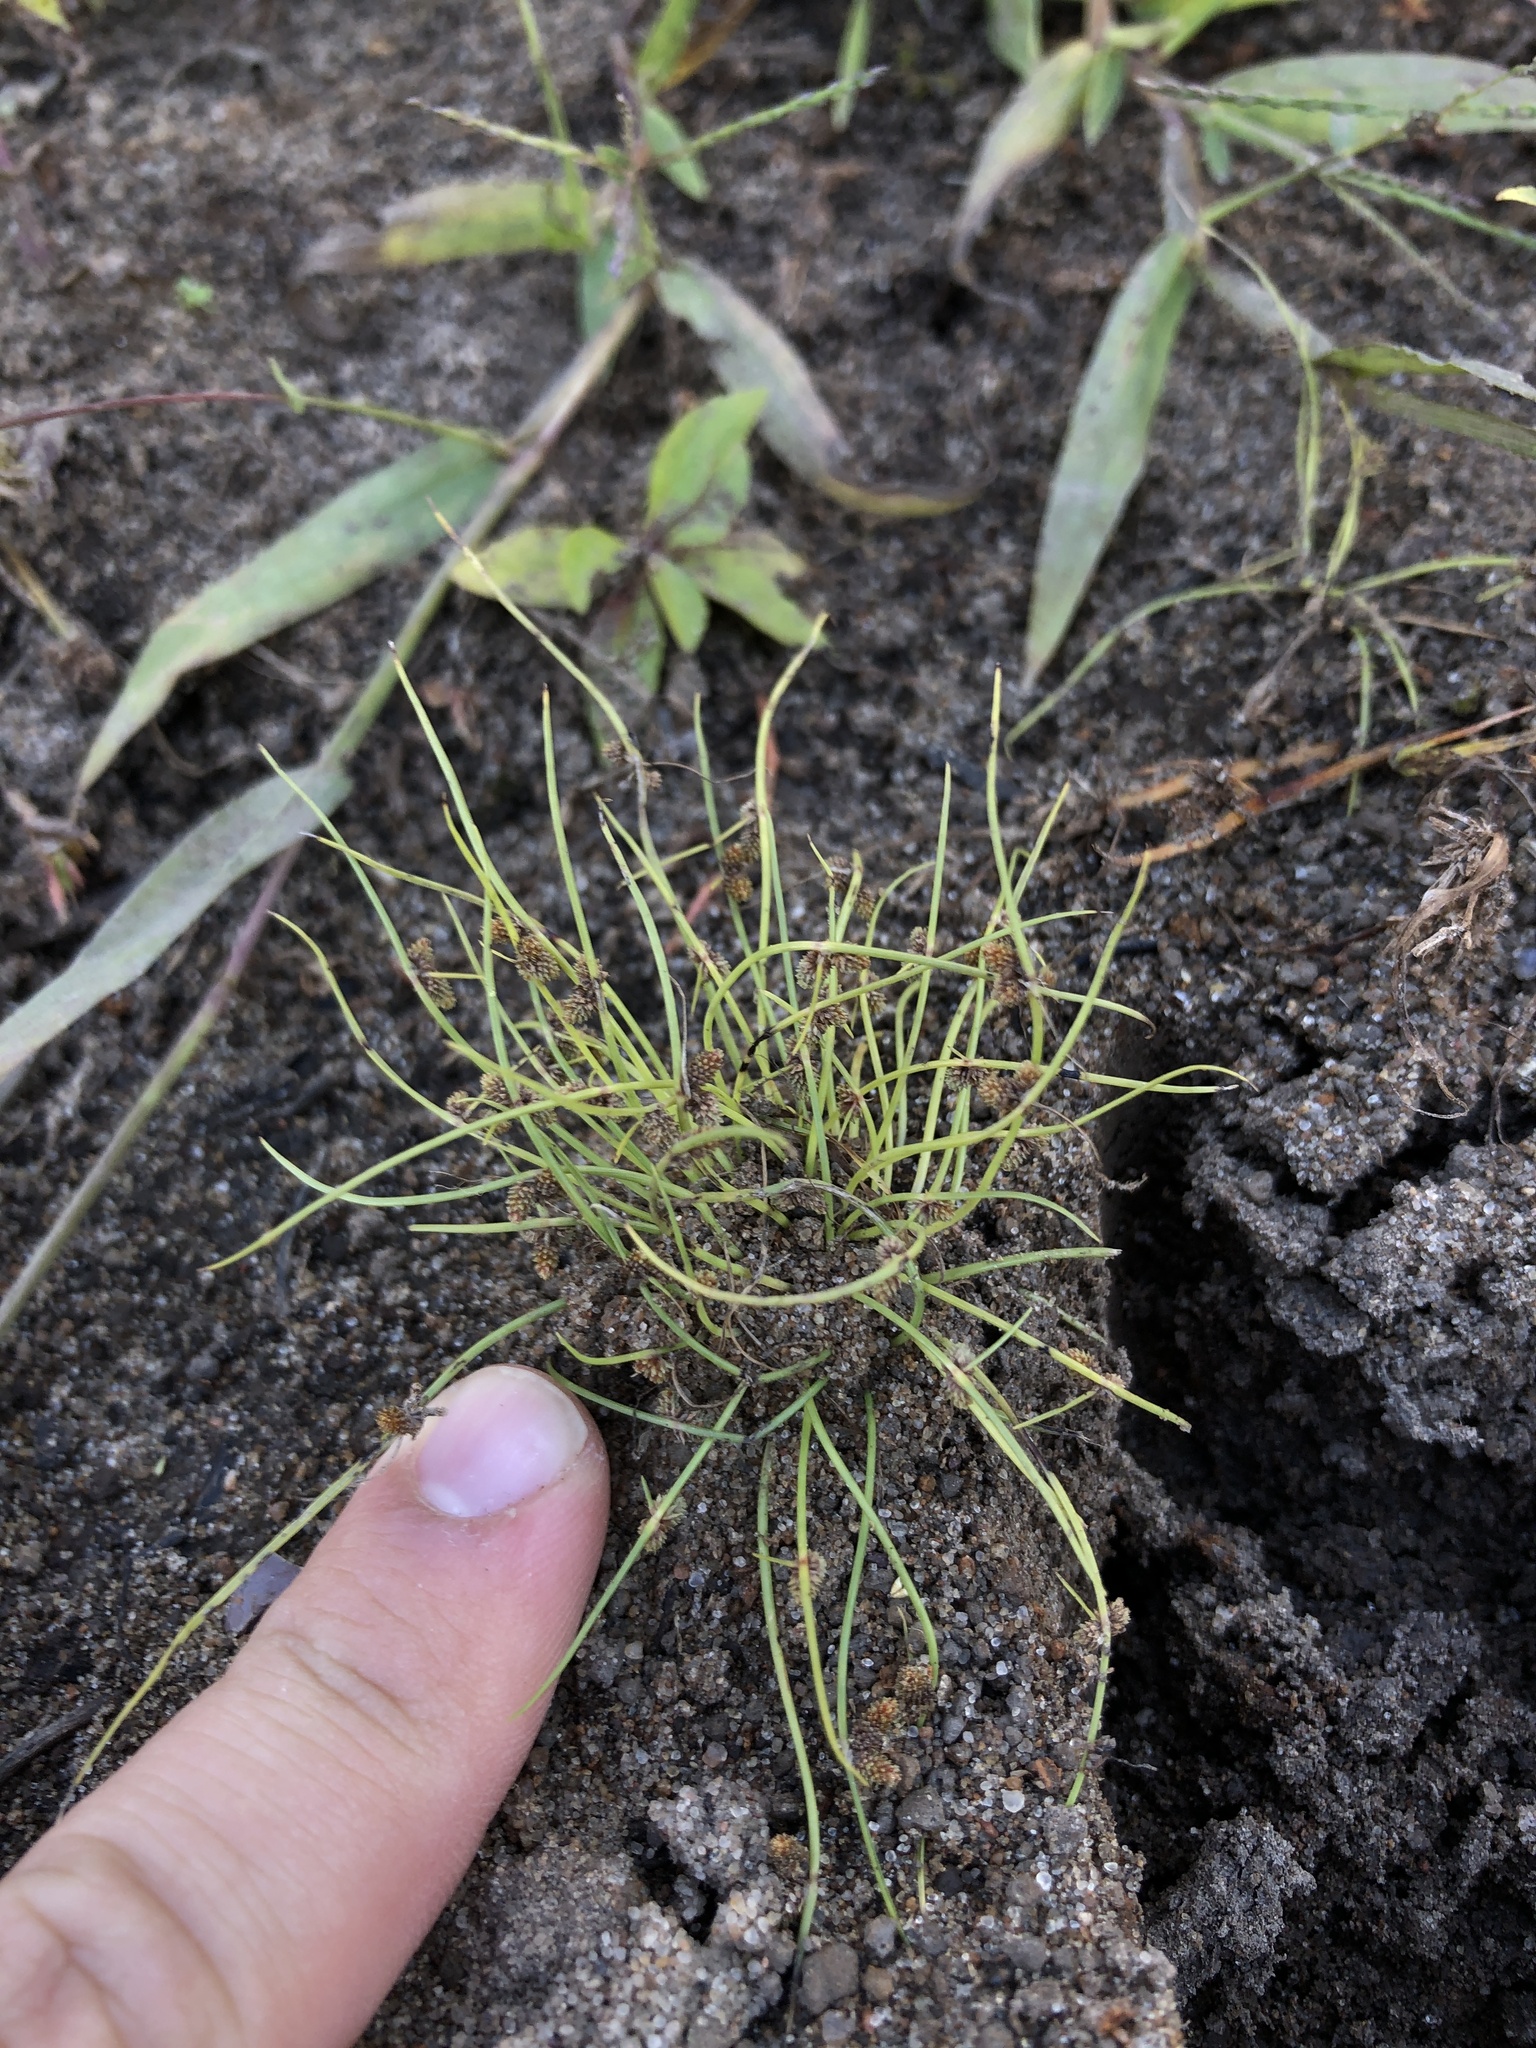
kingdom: Plantae
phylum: Tracheophyta
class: Liliopsida
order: Poales
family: Cyperaceae
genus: Cyperus
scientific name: Cyperus subsquarrosus
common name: Dwarf bulrush
